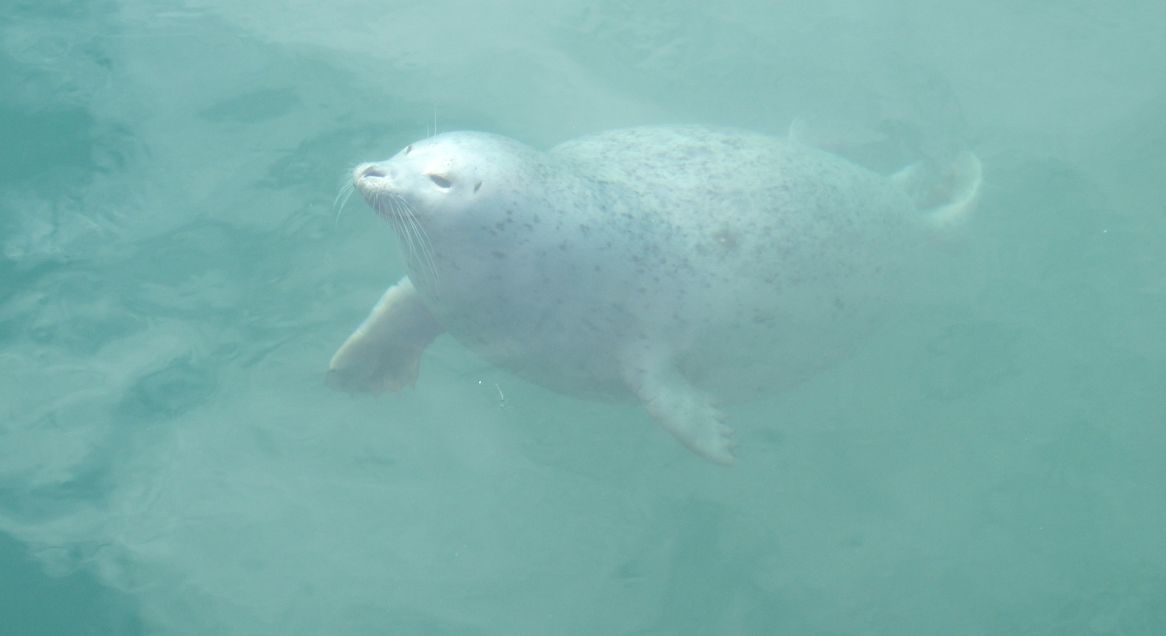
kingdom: Animalia
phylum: Chordata
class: Mammalia
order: Carnivora
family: Phocidae
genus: Phoca
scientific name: Phoca vitulina
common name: Harbor seal
